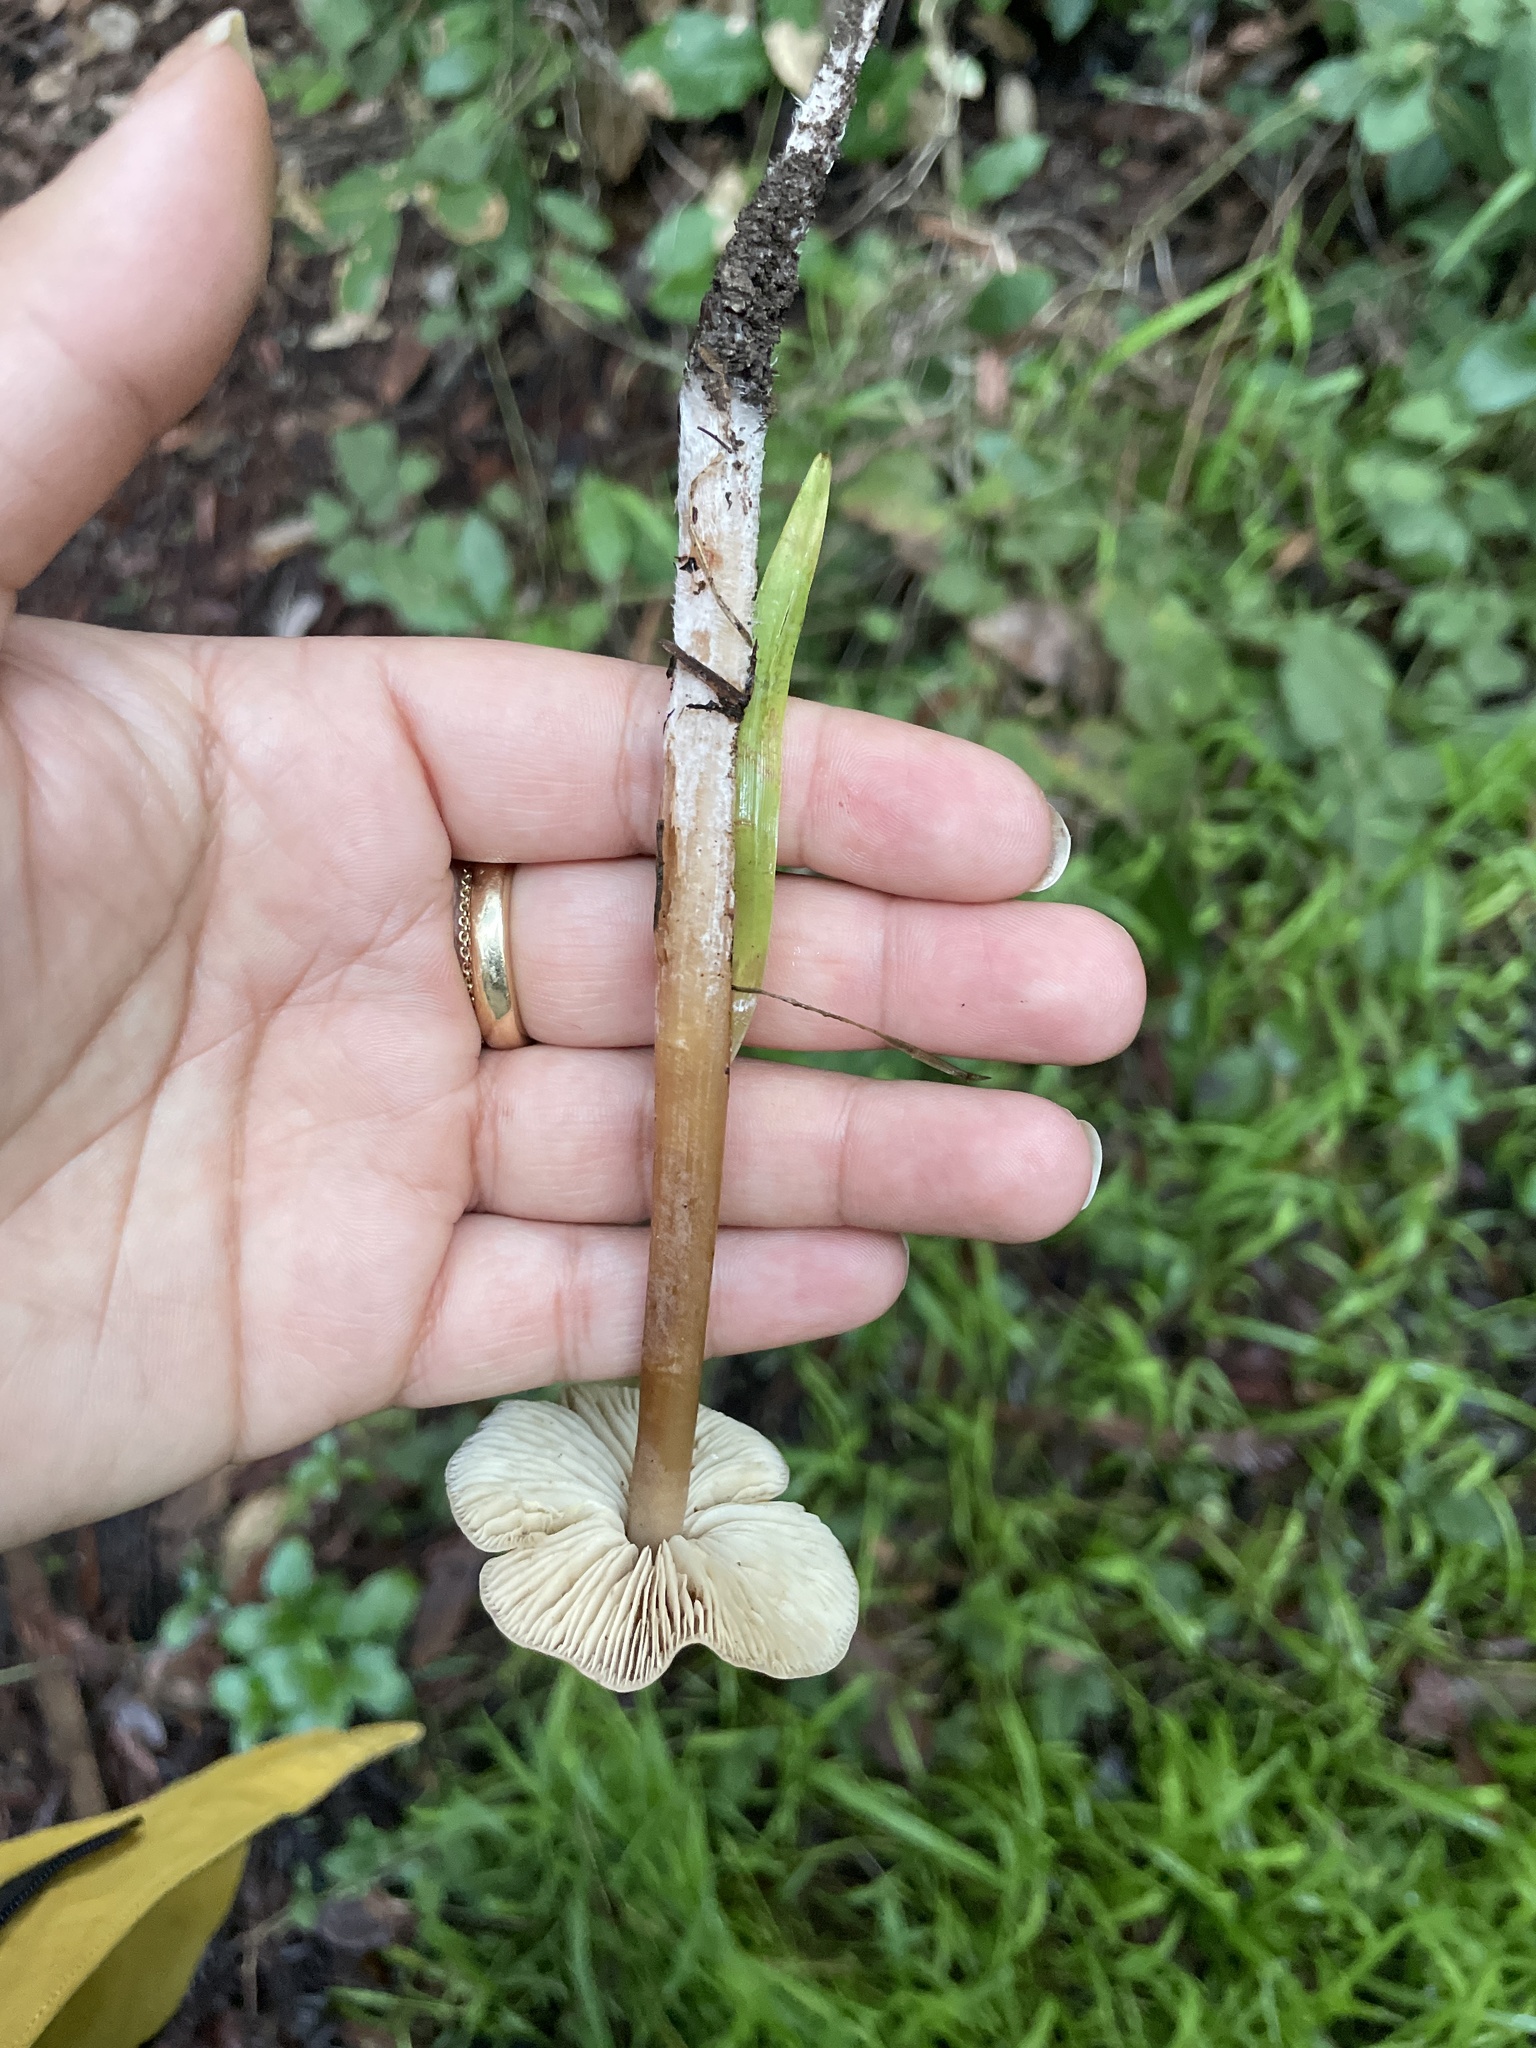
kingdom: Fungi
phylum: Basidiomycota
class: Agaricomycetes
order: Agaricales
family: Tricholomataceae
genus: Caulorhiza
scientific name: Caulorhiza umbonata
